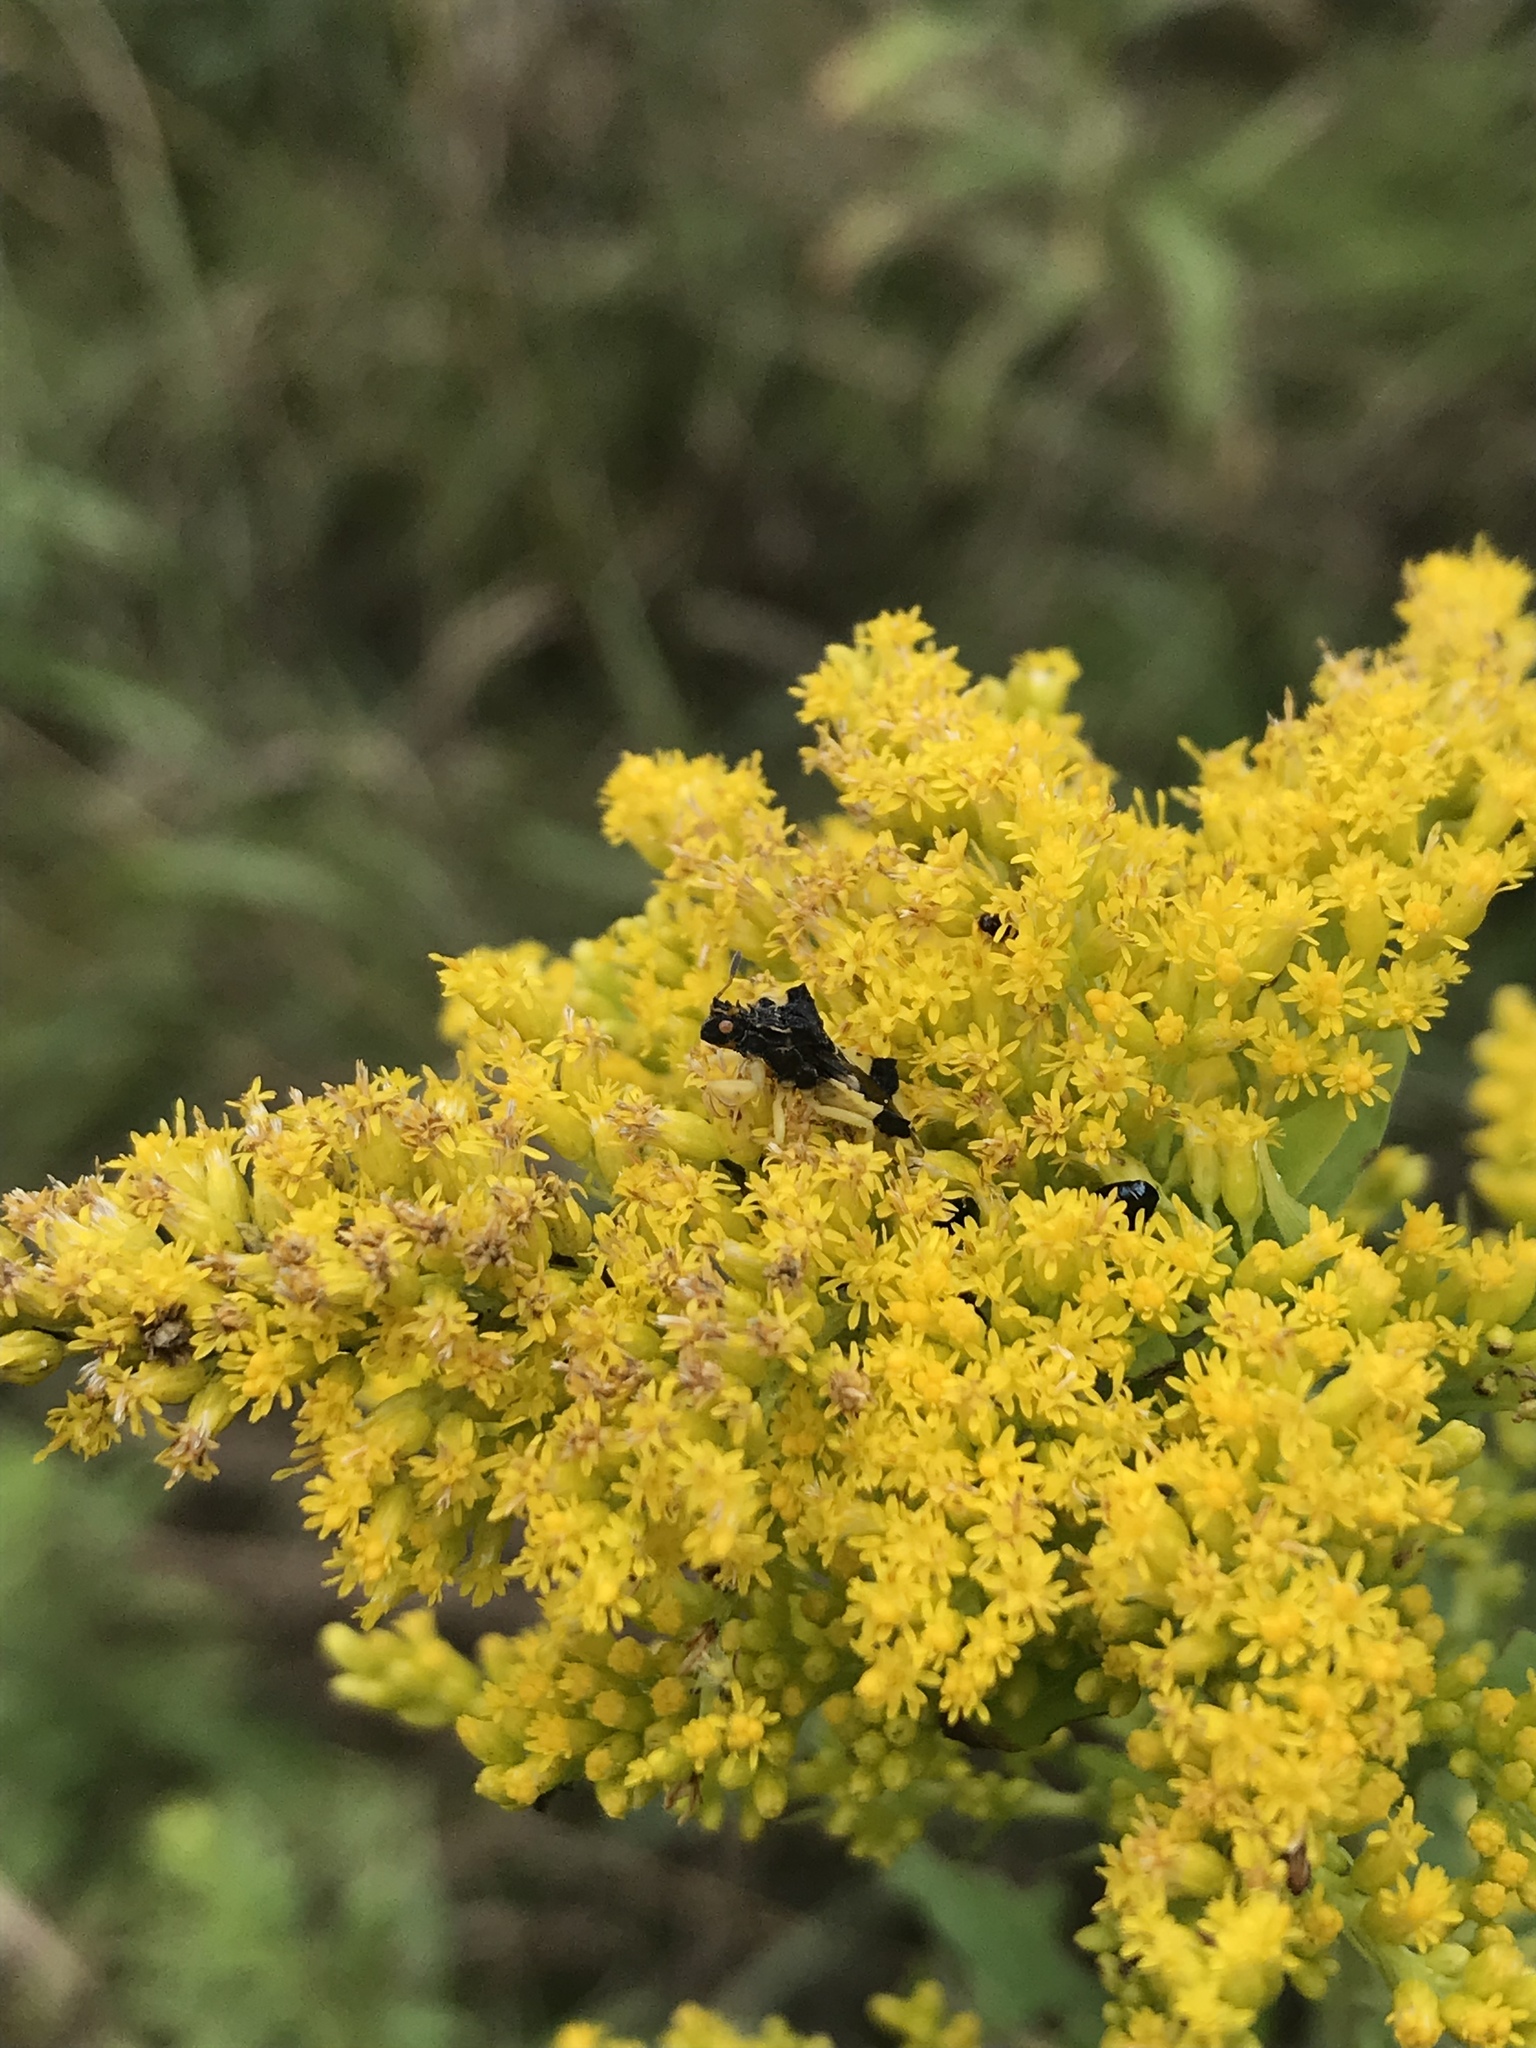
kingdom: Animalia
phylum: Arthropoda
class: Insecta
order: Hemiptera
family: Reduviidae
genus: Phymata
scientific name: Phymata pennsylvanica
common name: Pennsylvania ambush bug
